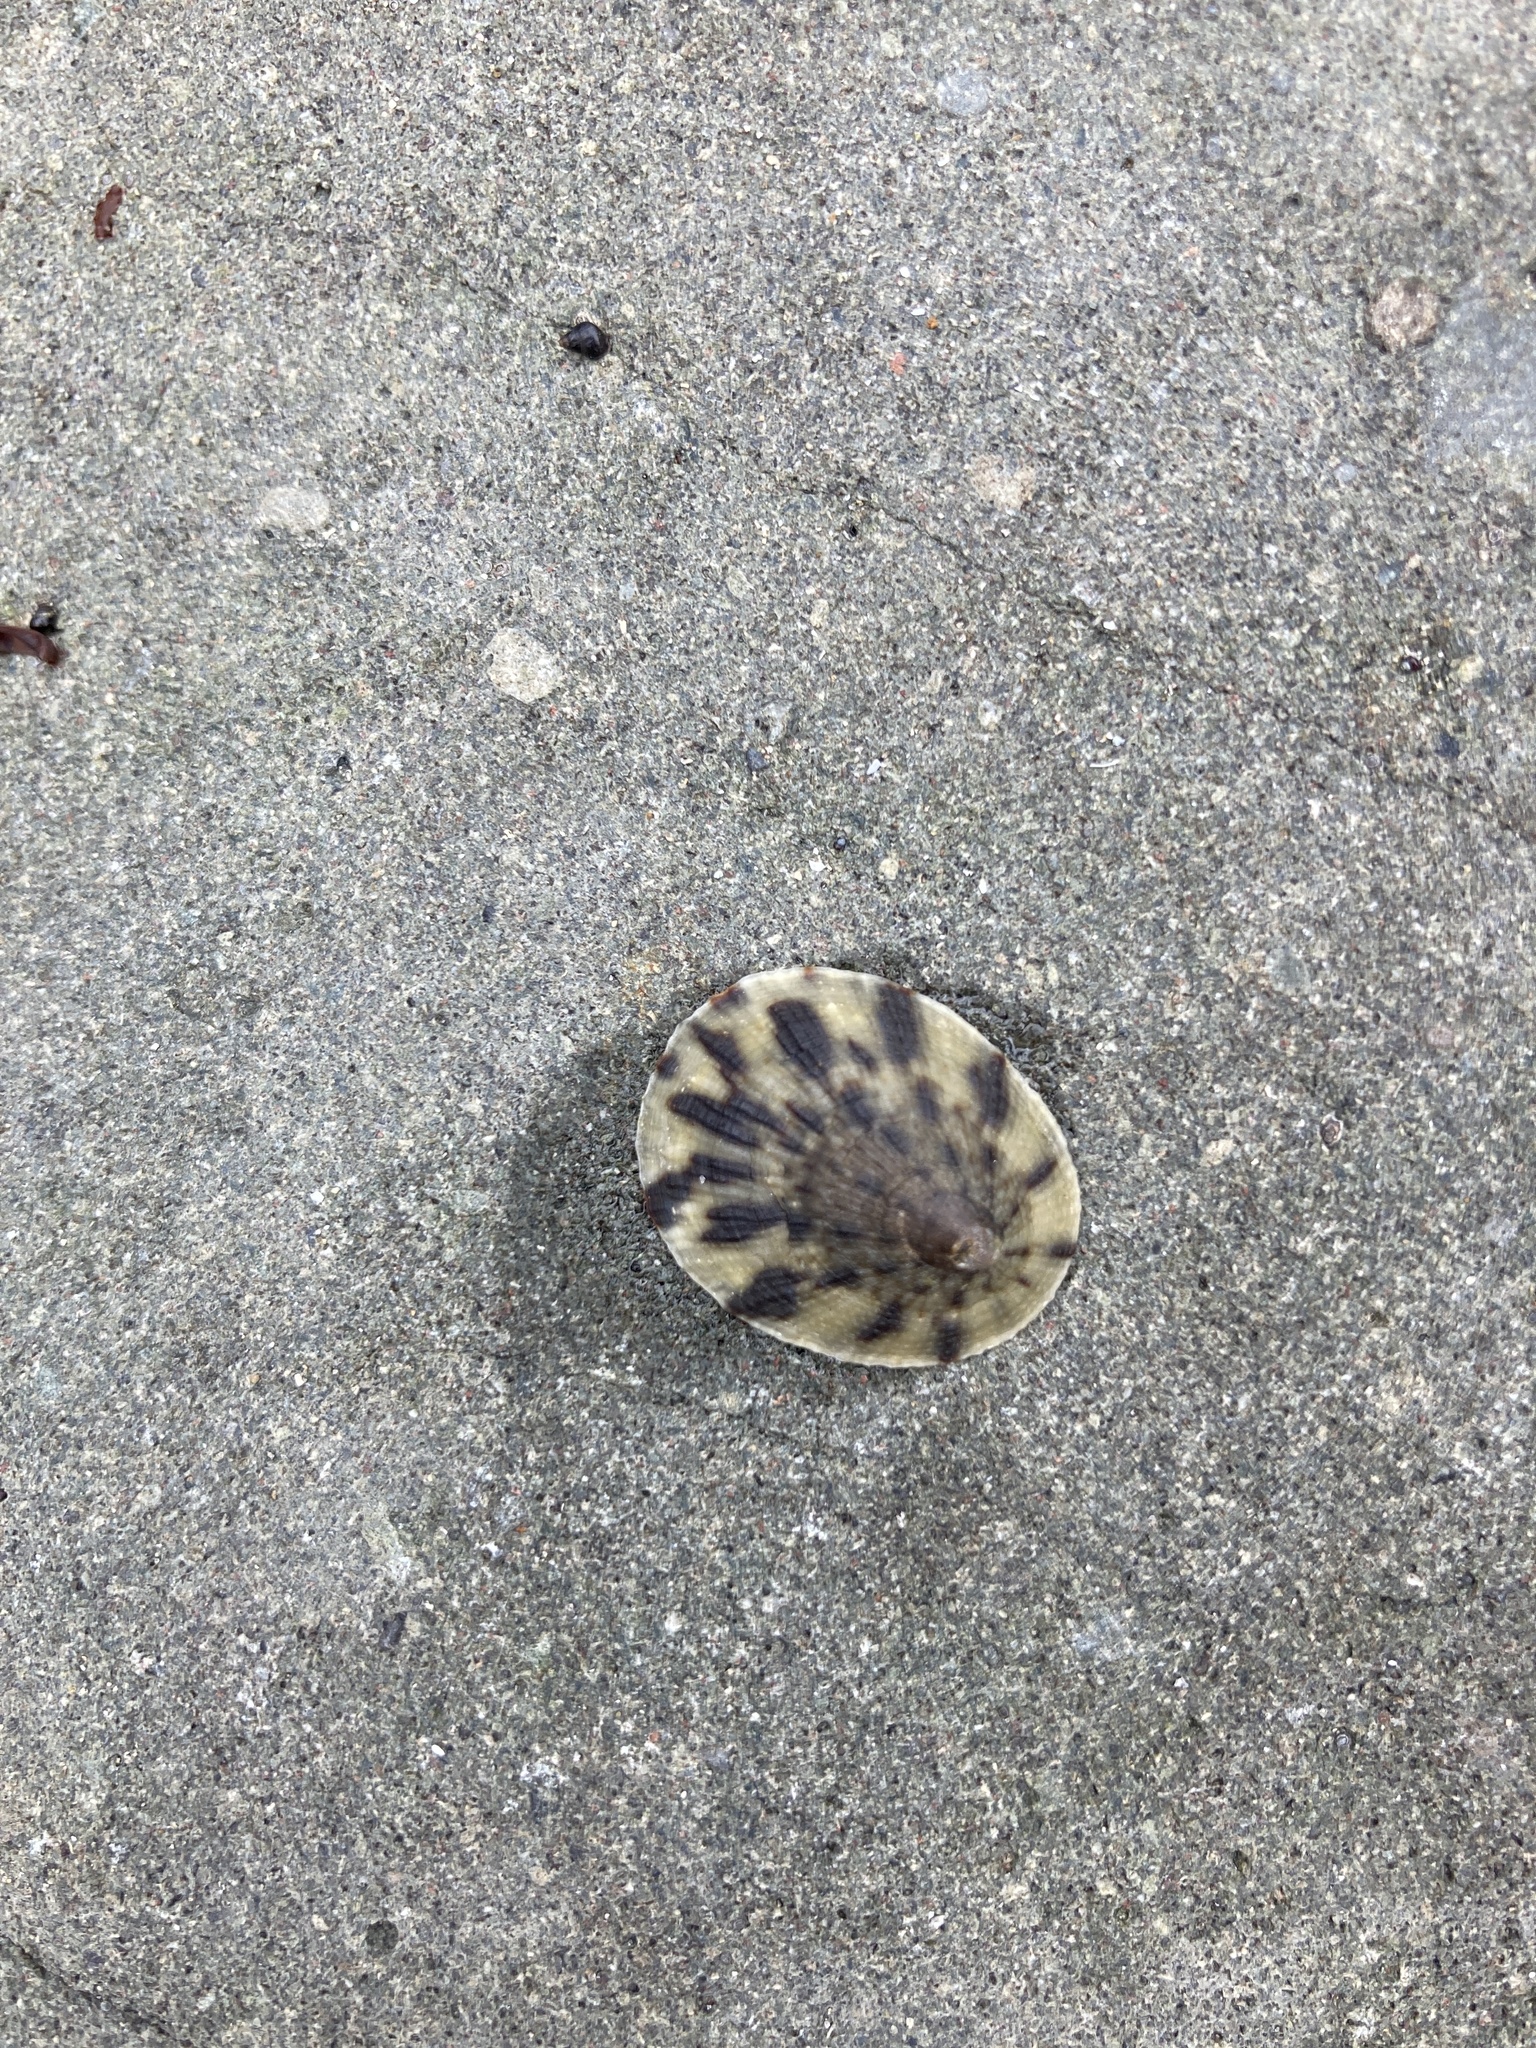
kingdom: Animalia
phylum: Mollusca
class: Gastropoda
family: Nacellidae
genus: Cellana
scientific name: Cellana radians
